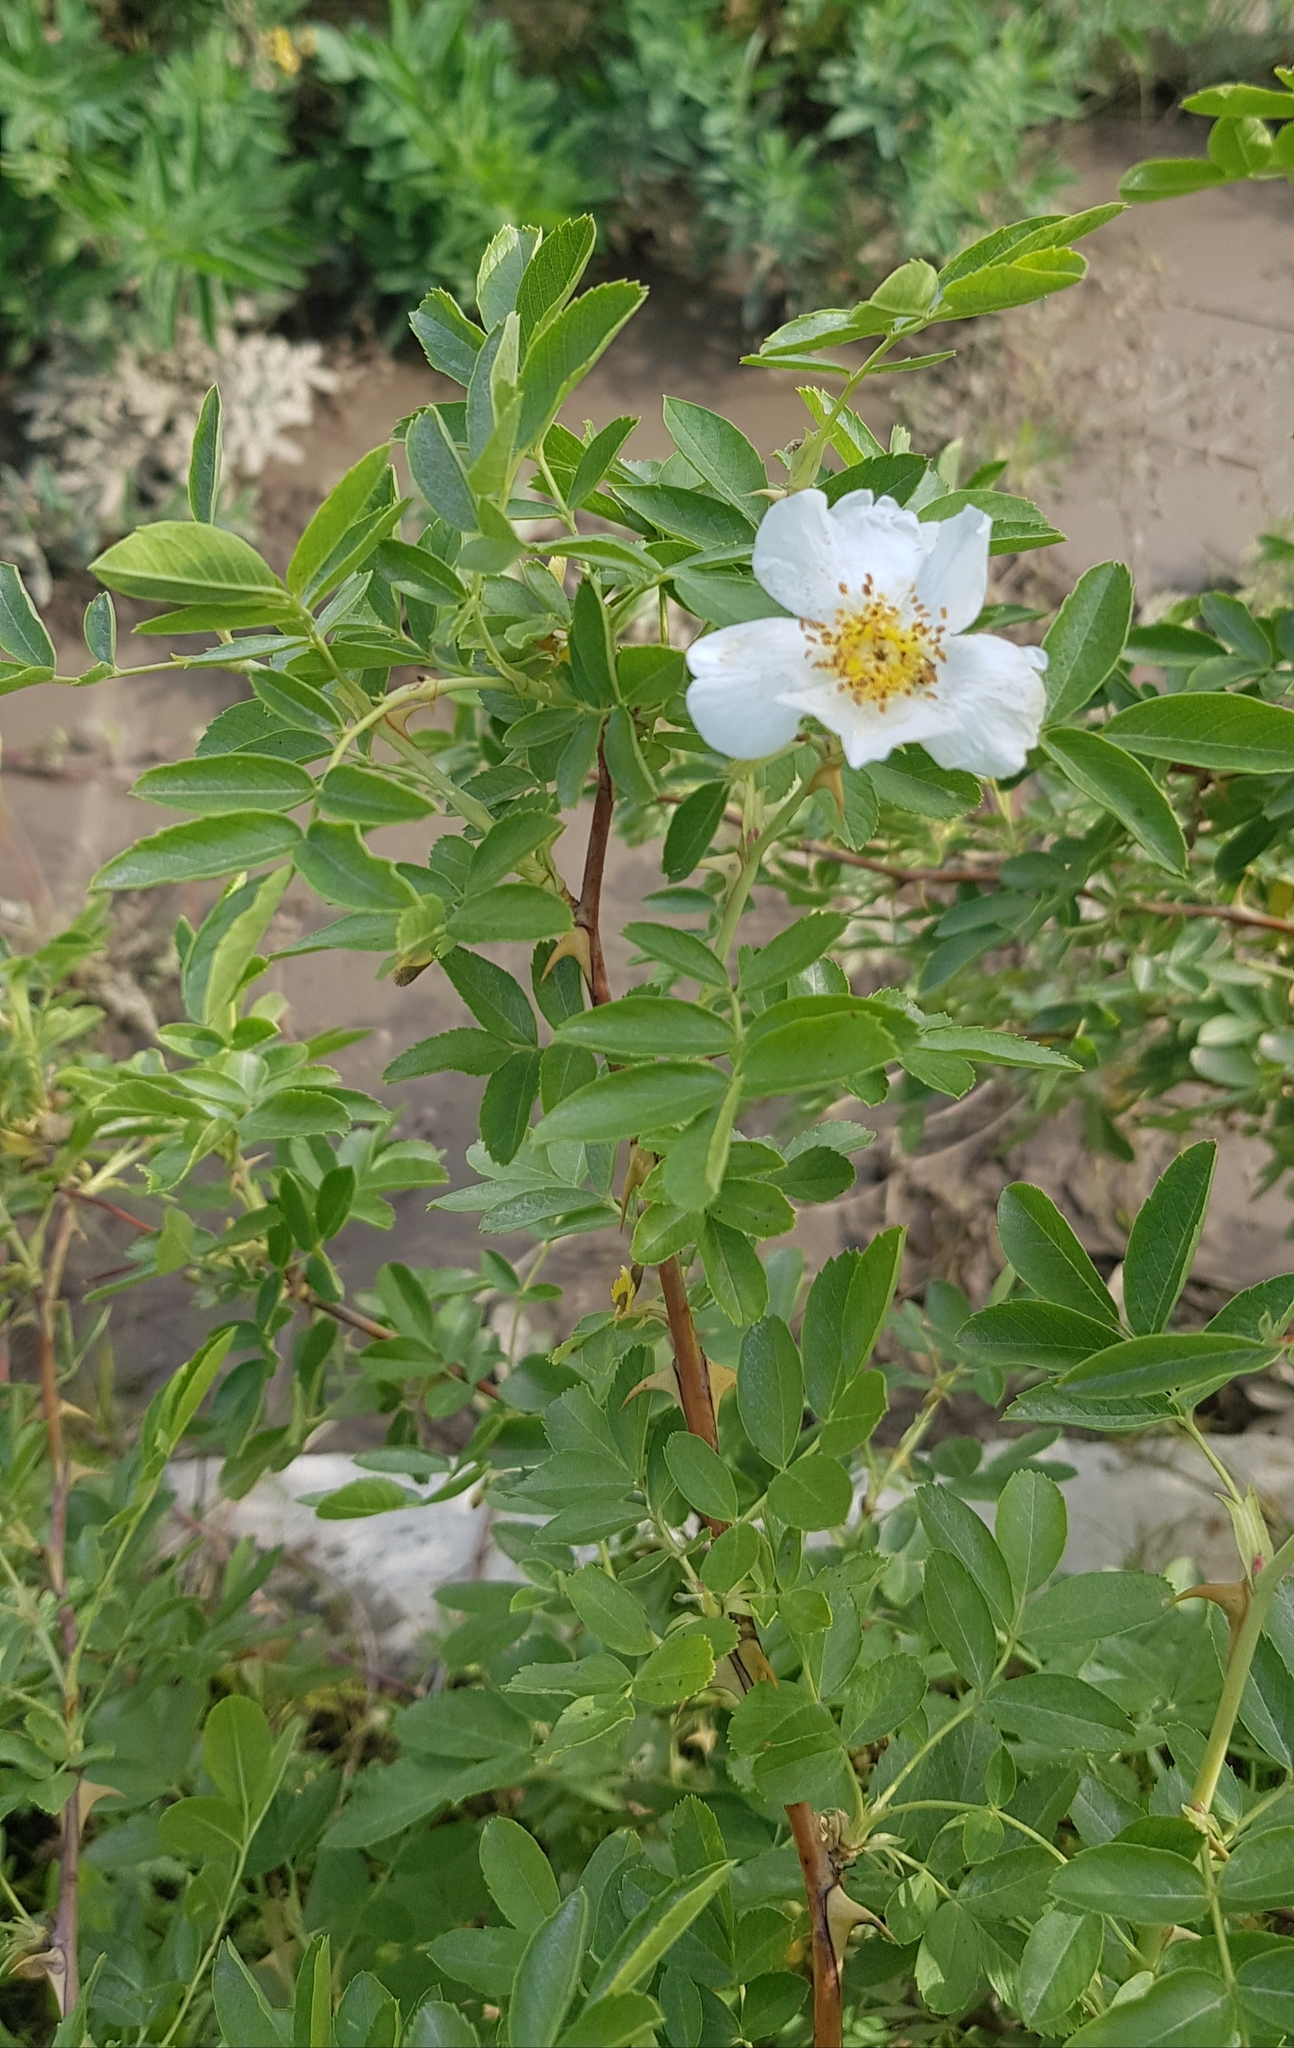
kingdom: Plantae
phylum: Tracheophyta
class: Magnoliopsida
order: Rosales
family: Rosaceae
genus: Rosa
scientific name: Rosa spinosissima
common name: Burnet rose
